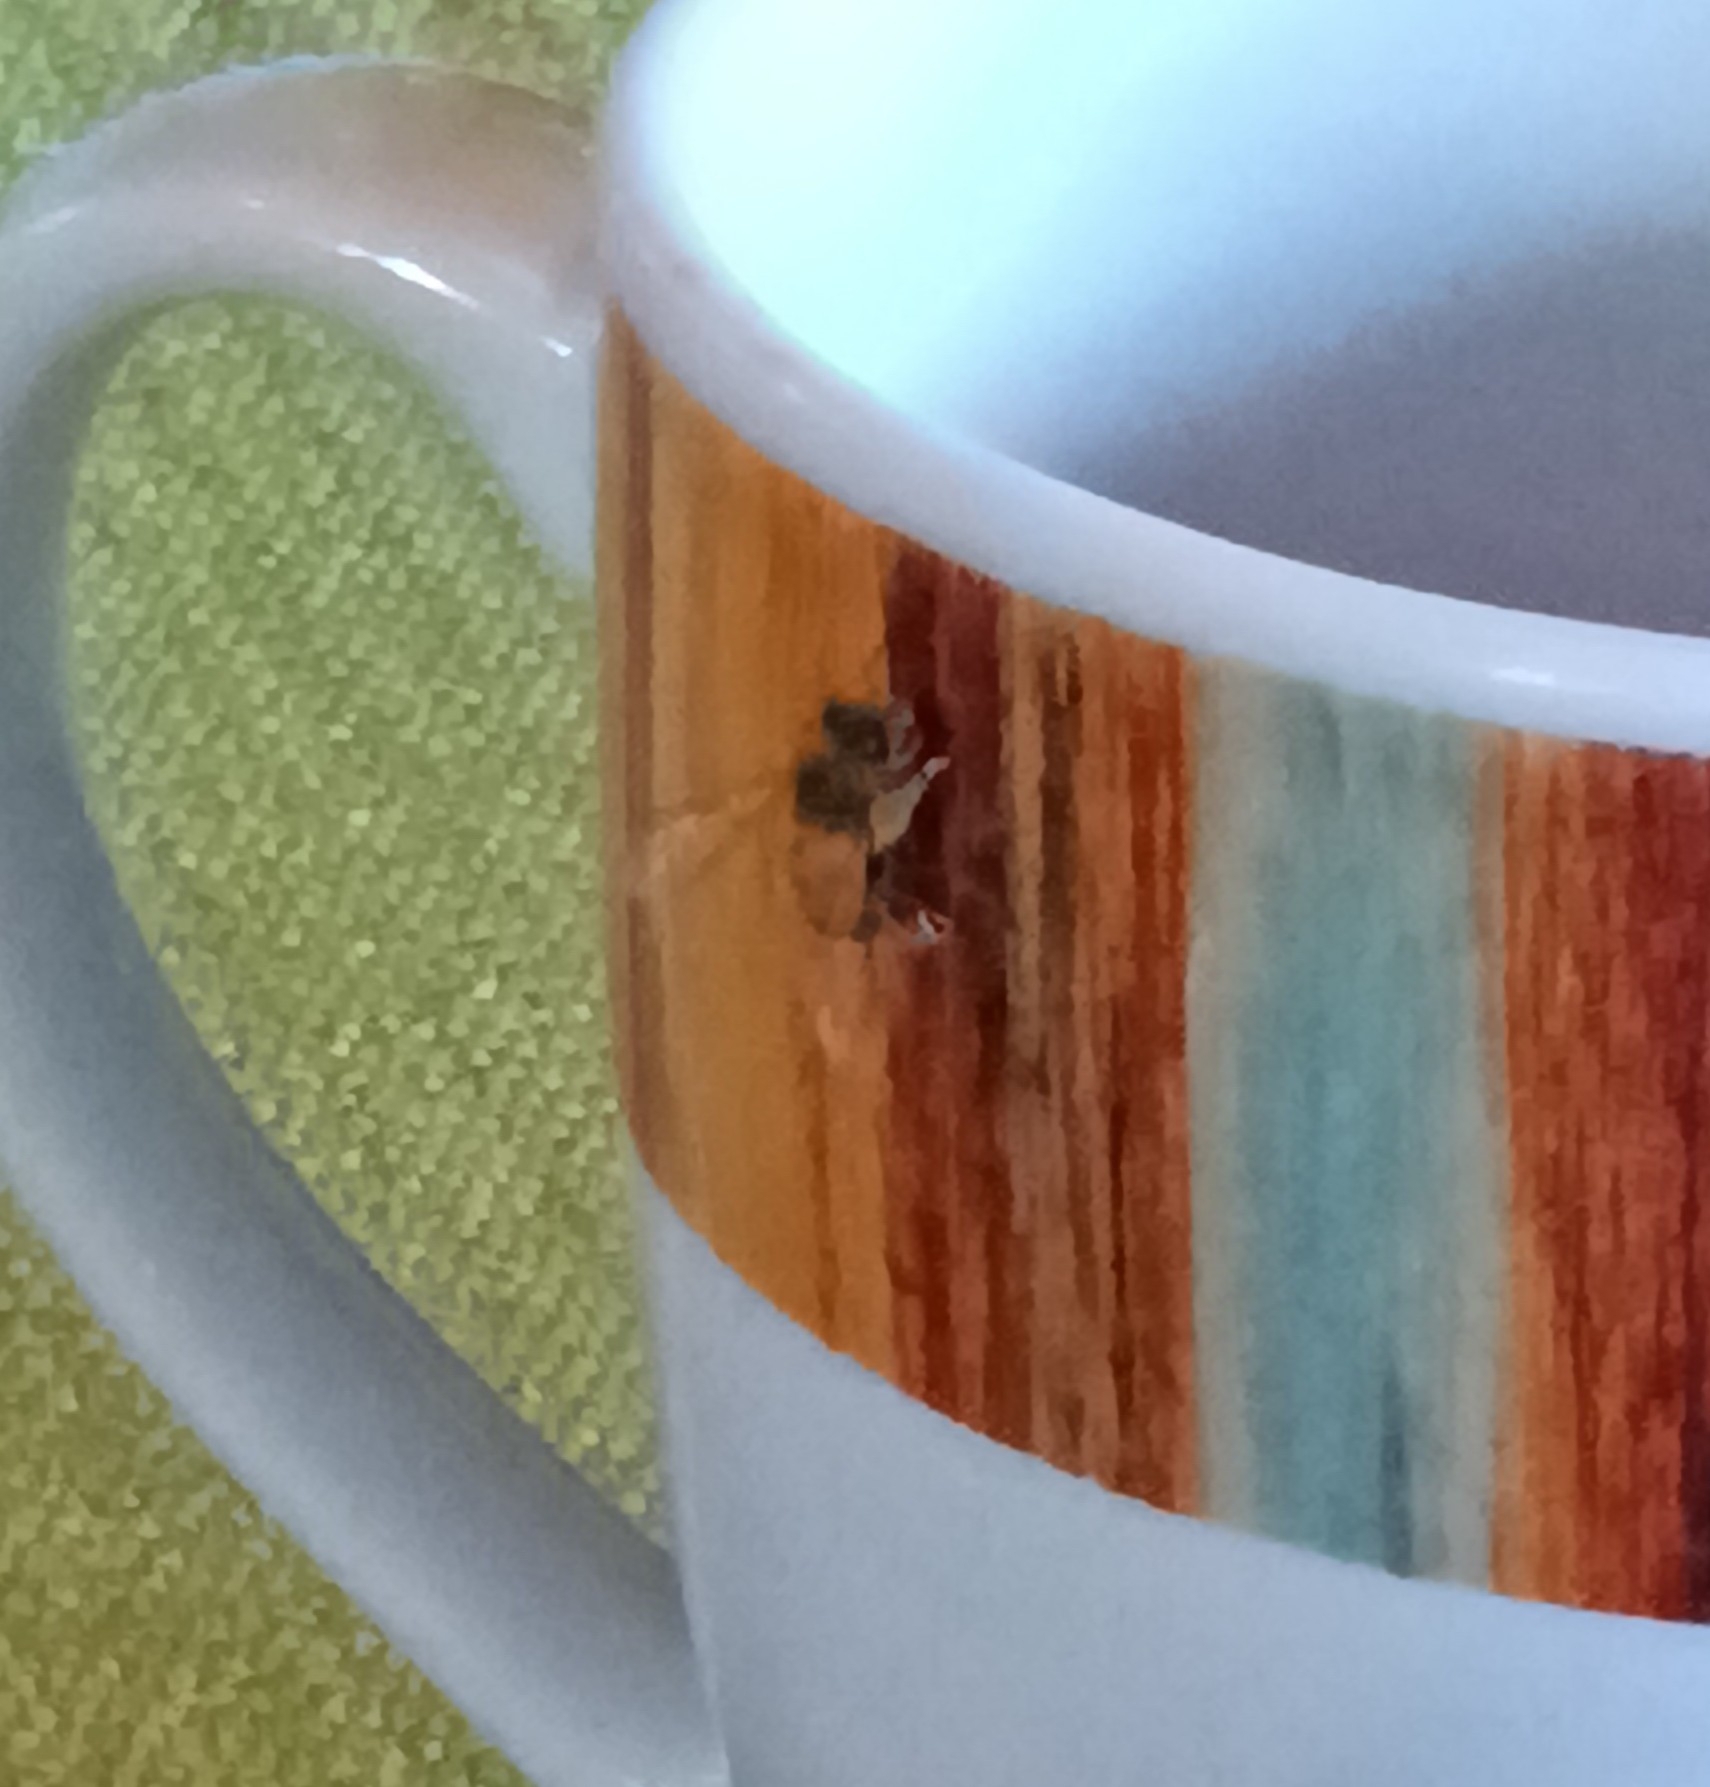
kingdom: Animalia
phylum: Arthropoda
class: Insecta
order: Hymenoptera
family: Apidae
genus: Apis
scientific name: Apis mellifera
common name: Honey bee
